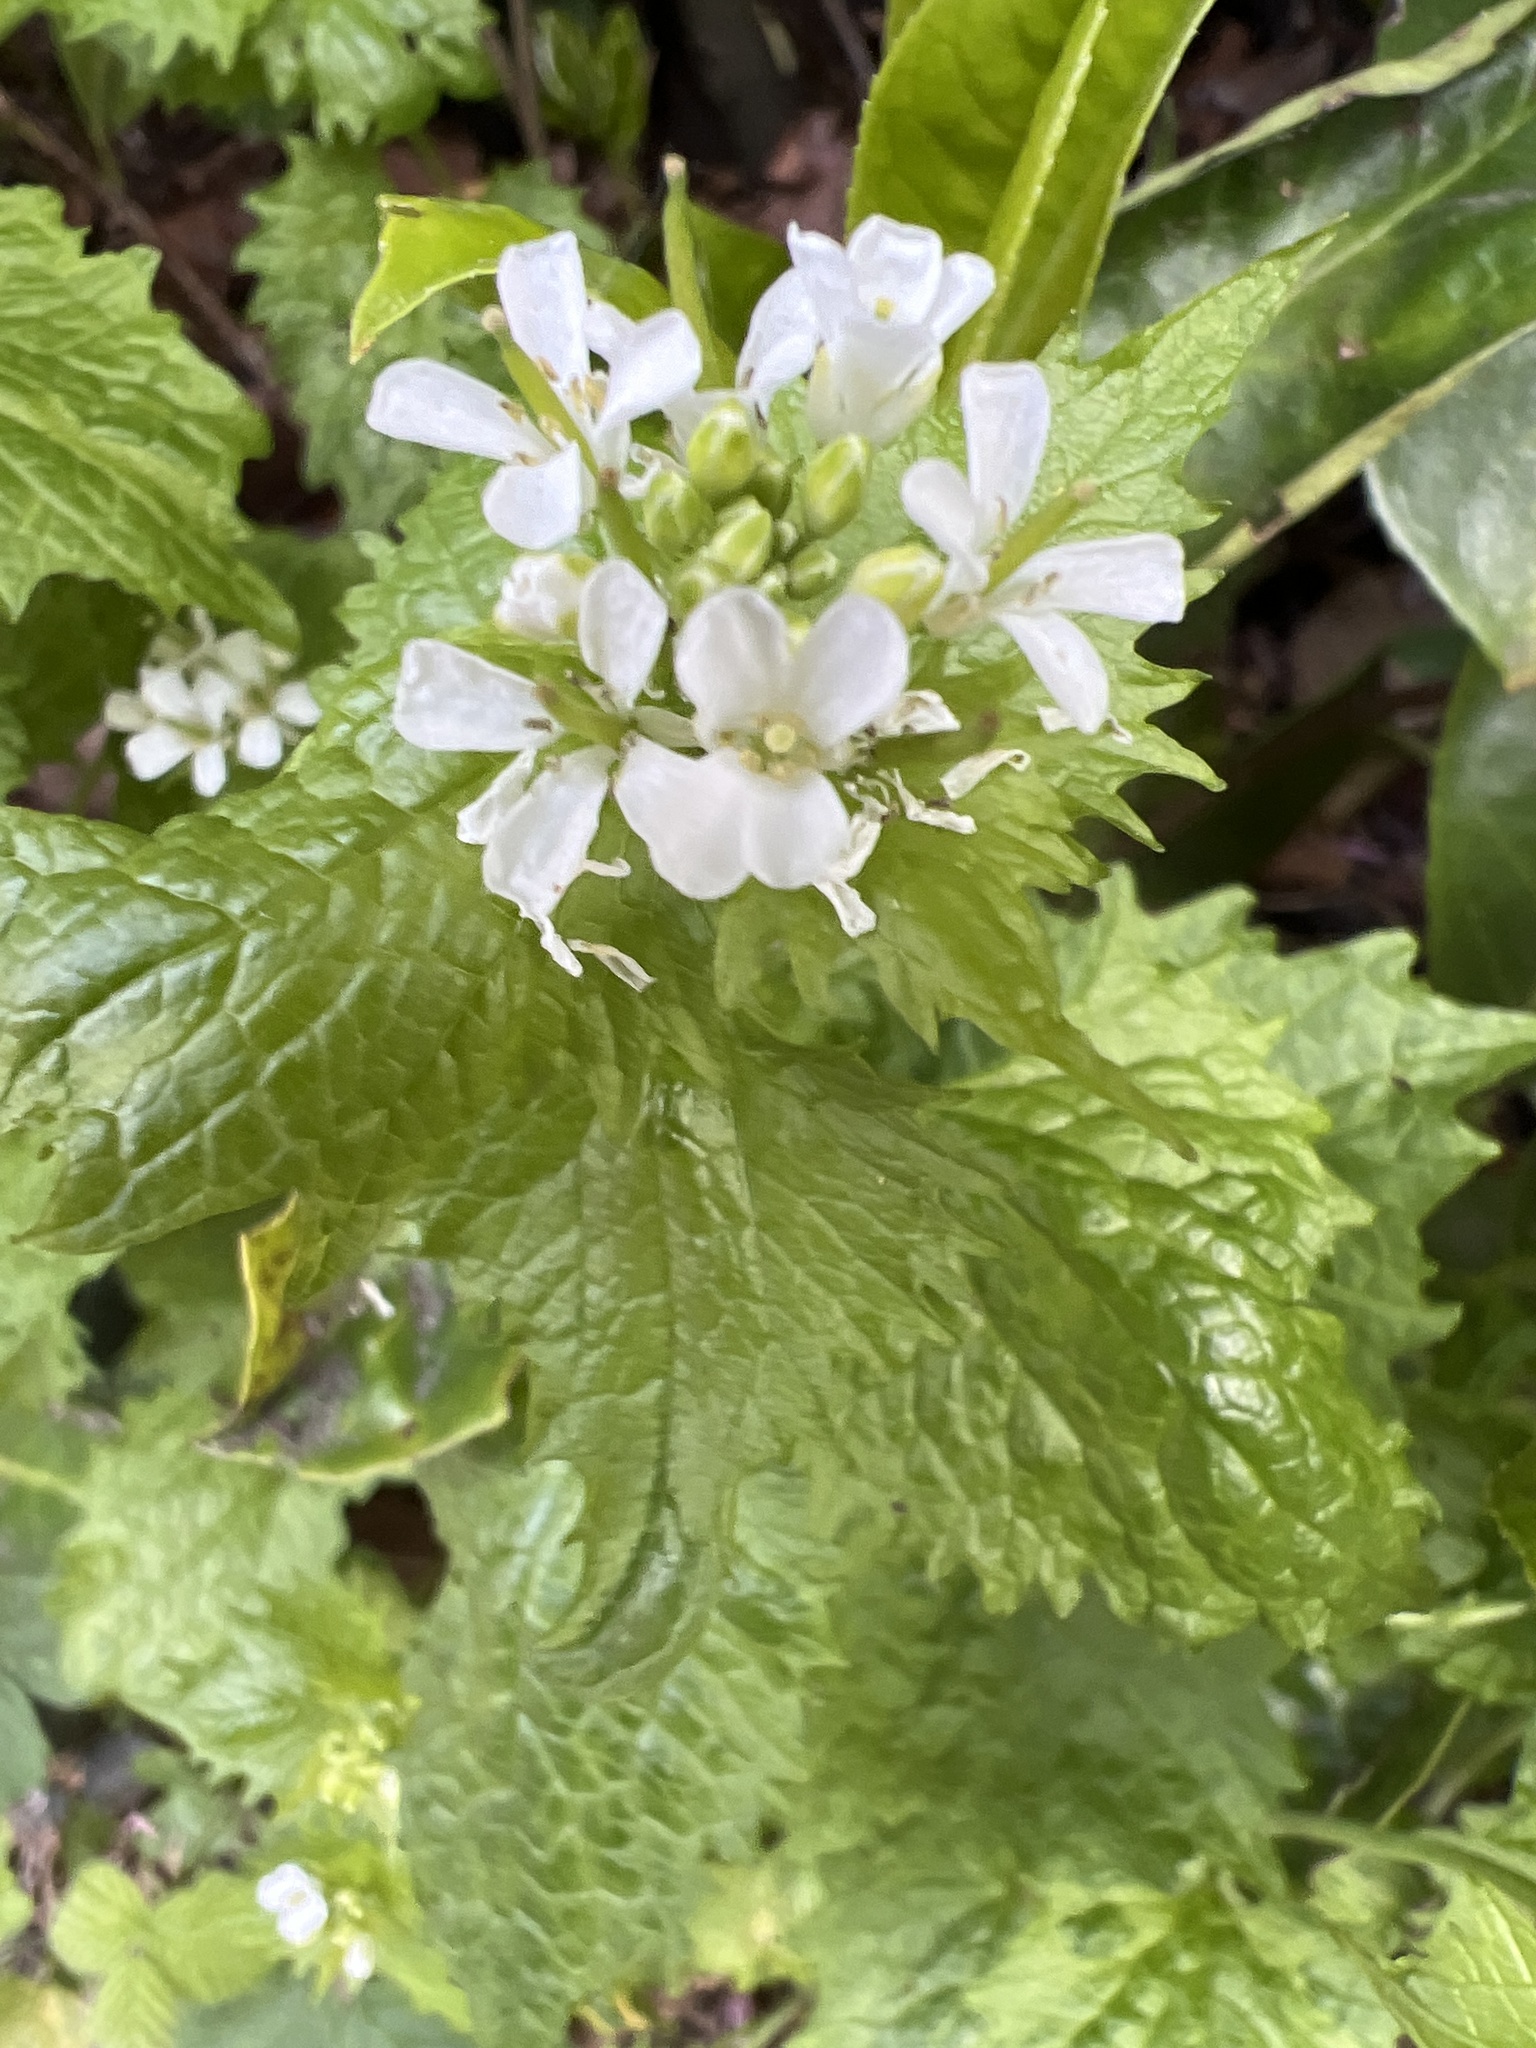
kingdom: Plantae
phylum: Tracheophyta
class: Magnoliopsida
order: Brassicales
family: Brassicaceae
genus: Alliaria
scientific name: Alliaria petiolata
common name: Garlic mustard
